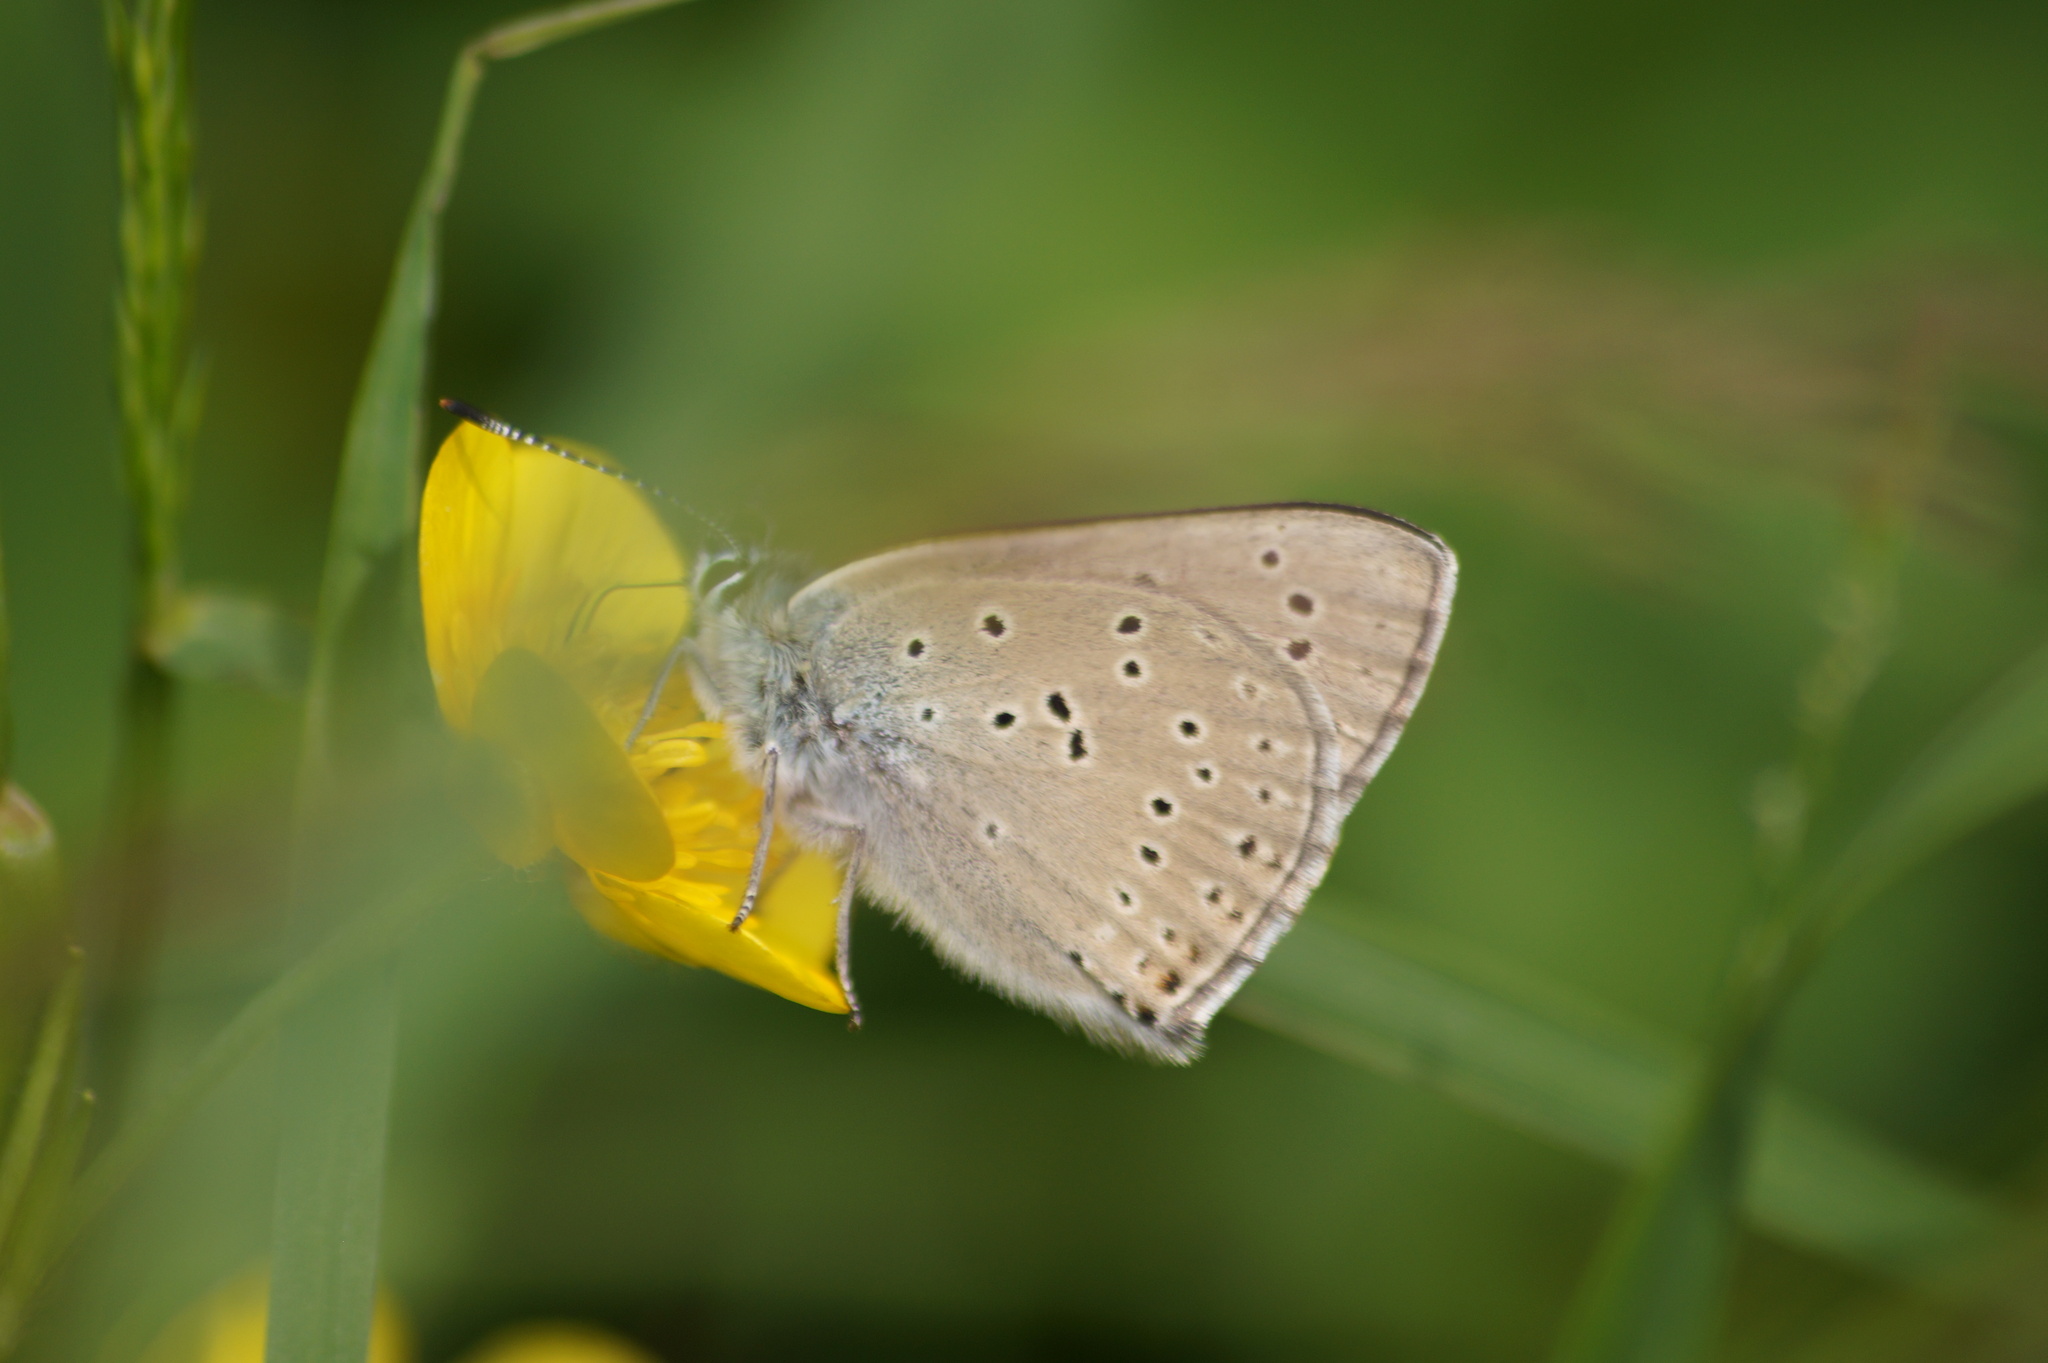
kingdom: Animalia
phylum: Arthropoda
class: Insecta
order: Lepidoptera
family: Lycaenidae
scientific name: Lycaenidae
